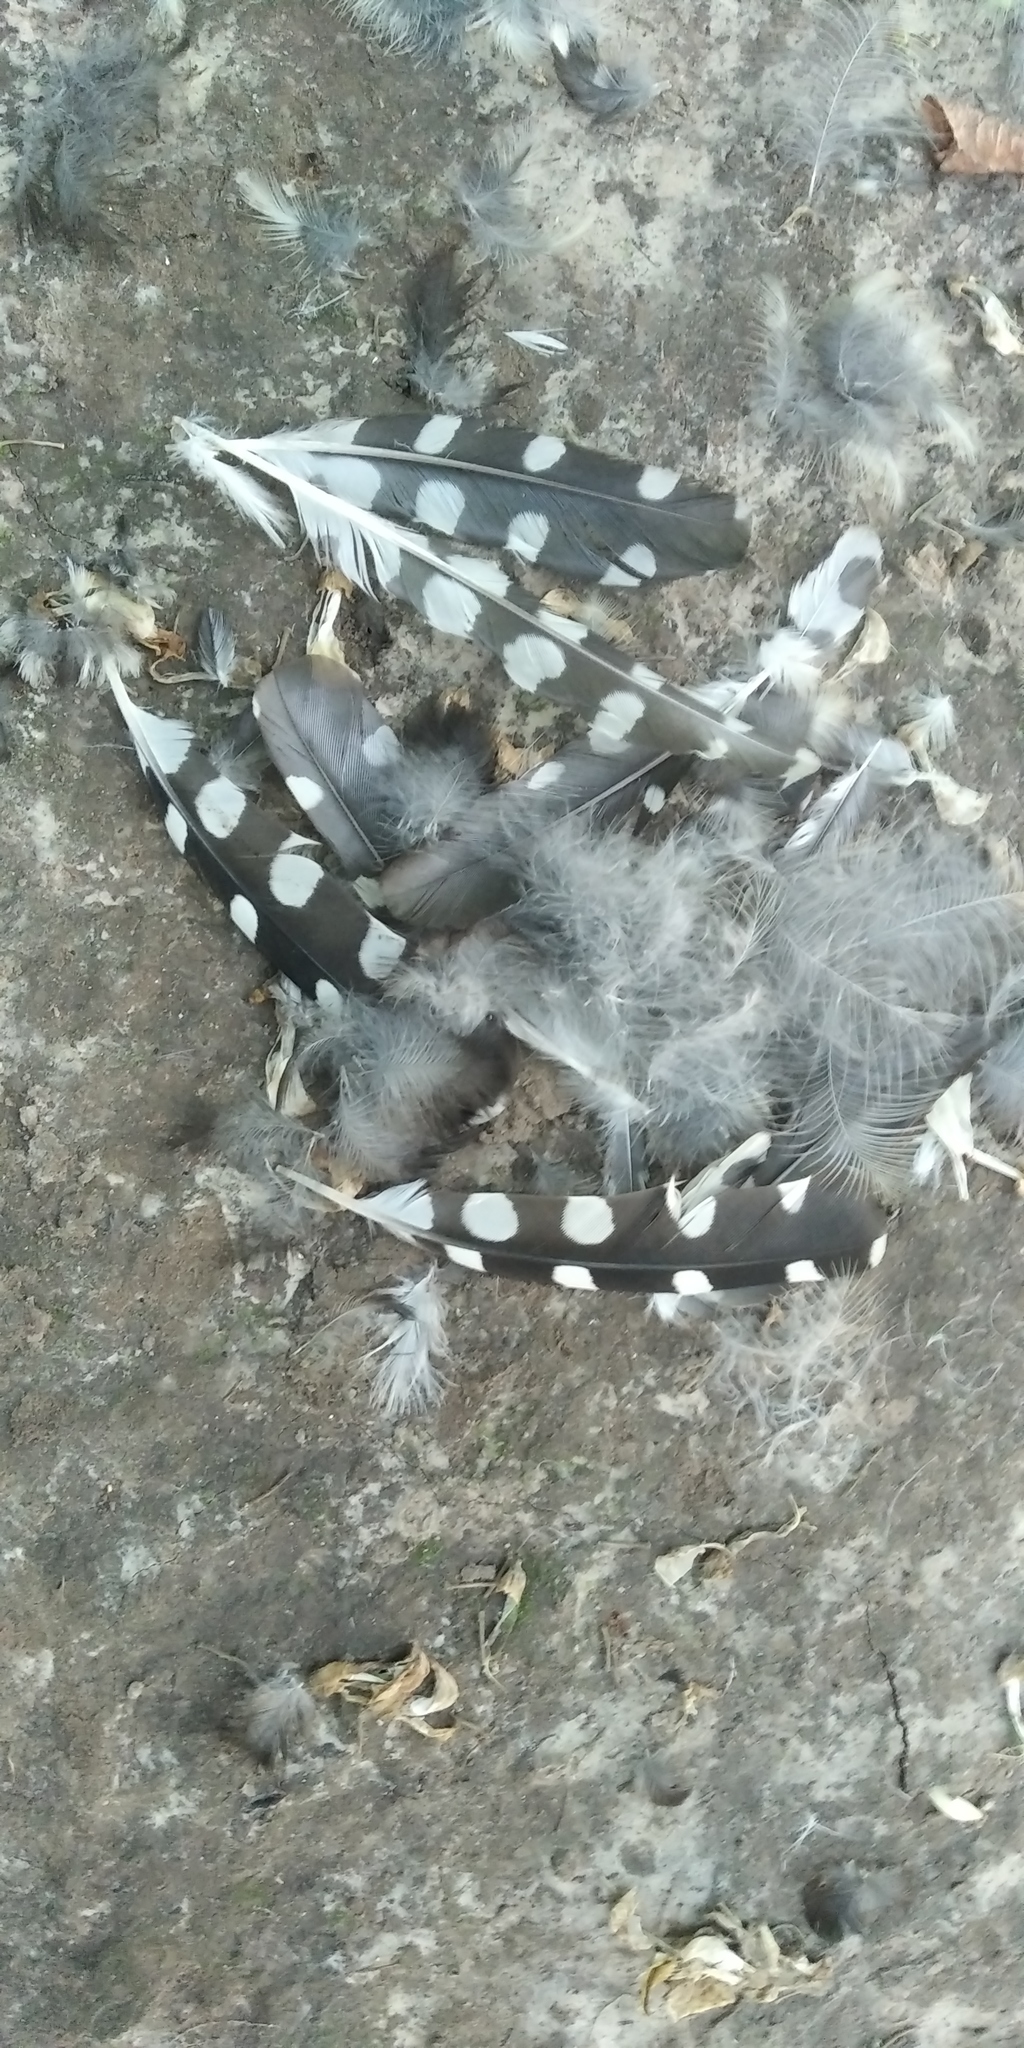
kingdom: Animalia
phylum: Chordata
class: Aves
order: Piciformes
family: Picidae
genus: Dendrocopos
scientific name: Dendrocopos major
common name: Great spotted woodpecker
